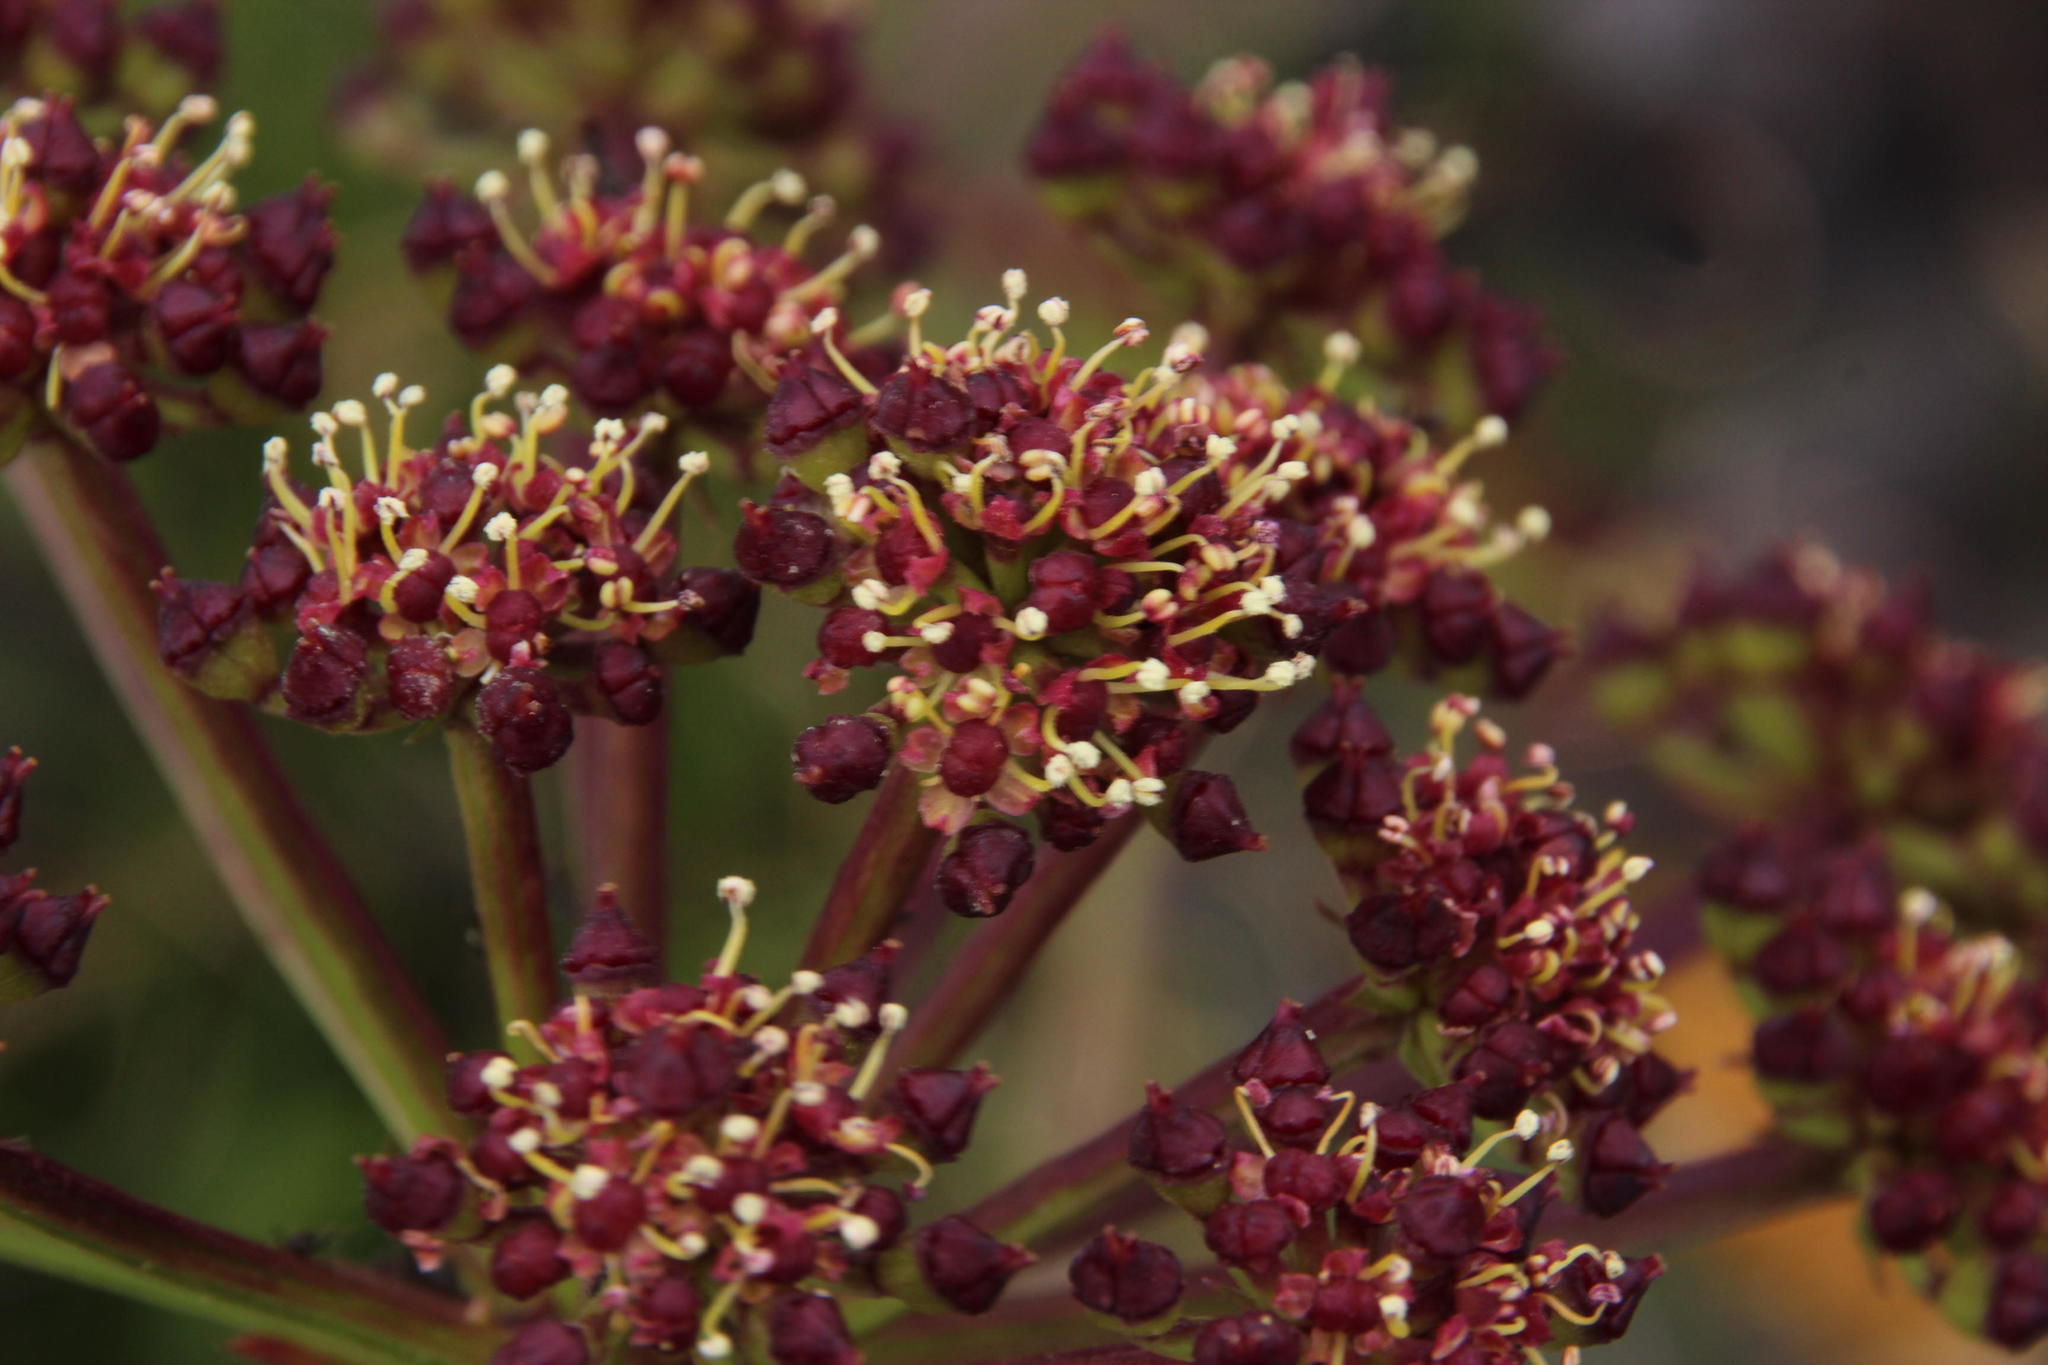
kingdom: Plantae
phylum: Tracheophyta
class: Magnoliopsida
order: Apiales
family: Apiaceae
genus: Nanobubon
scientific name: Nanobubon strictum
